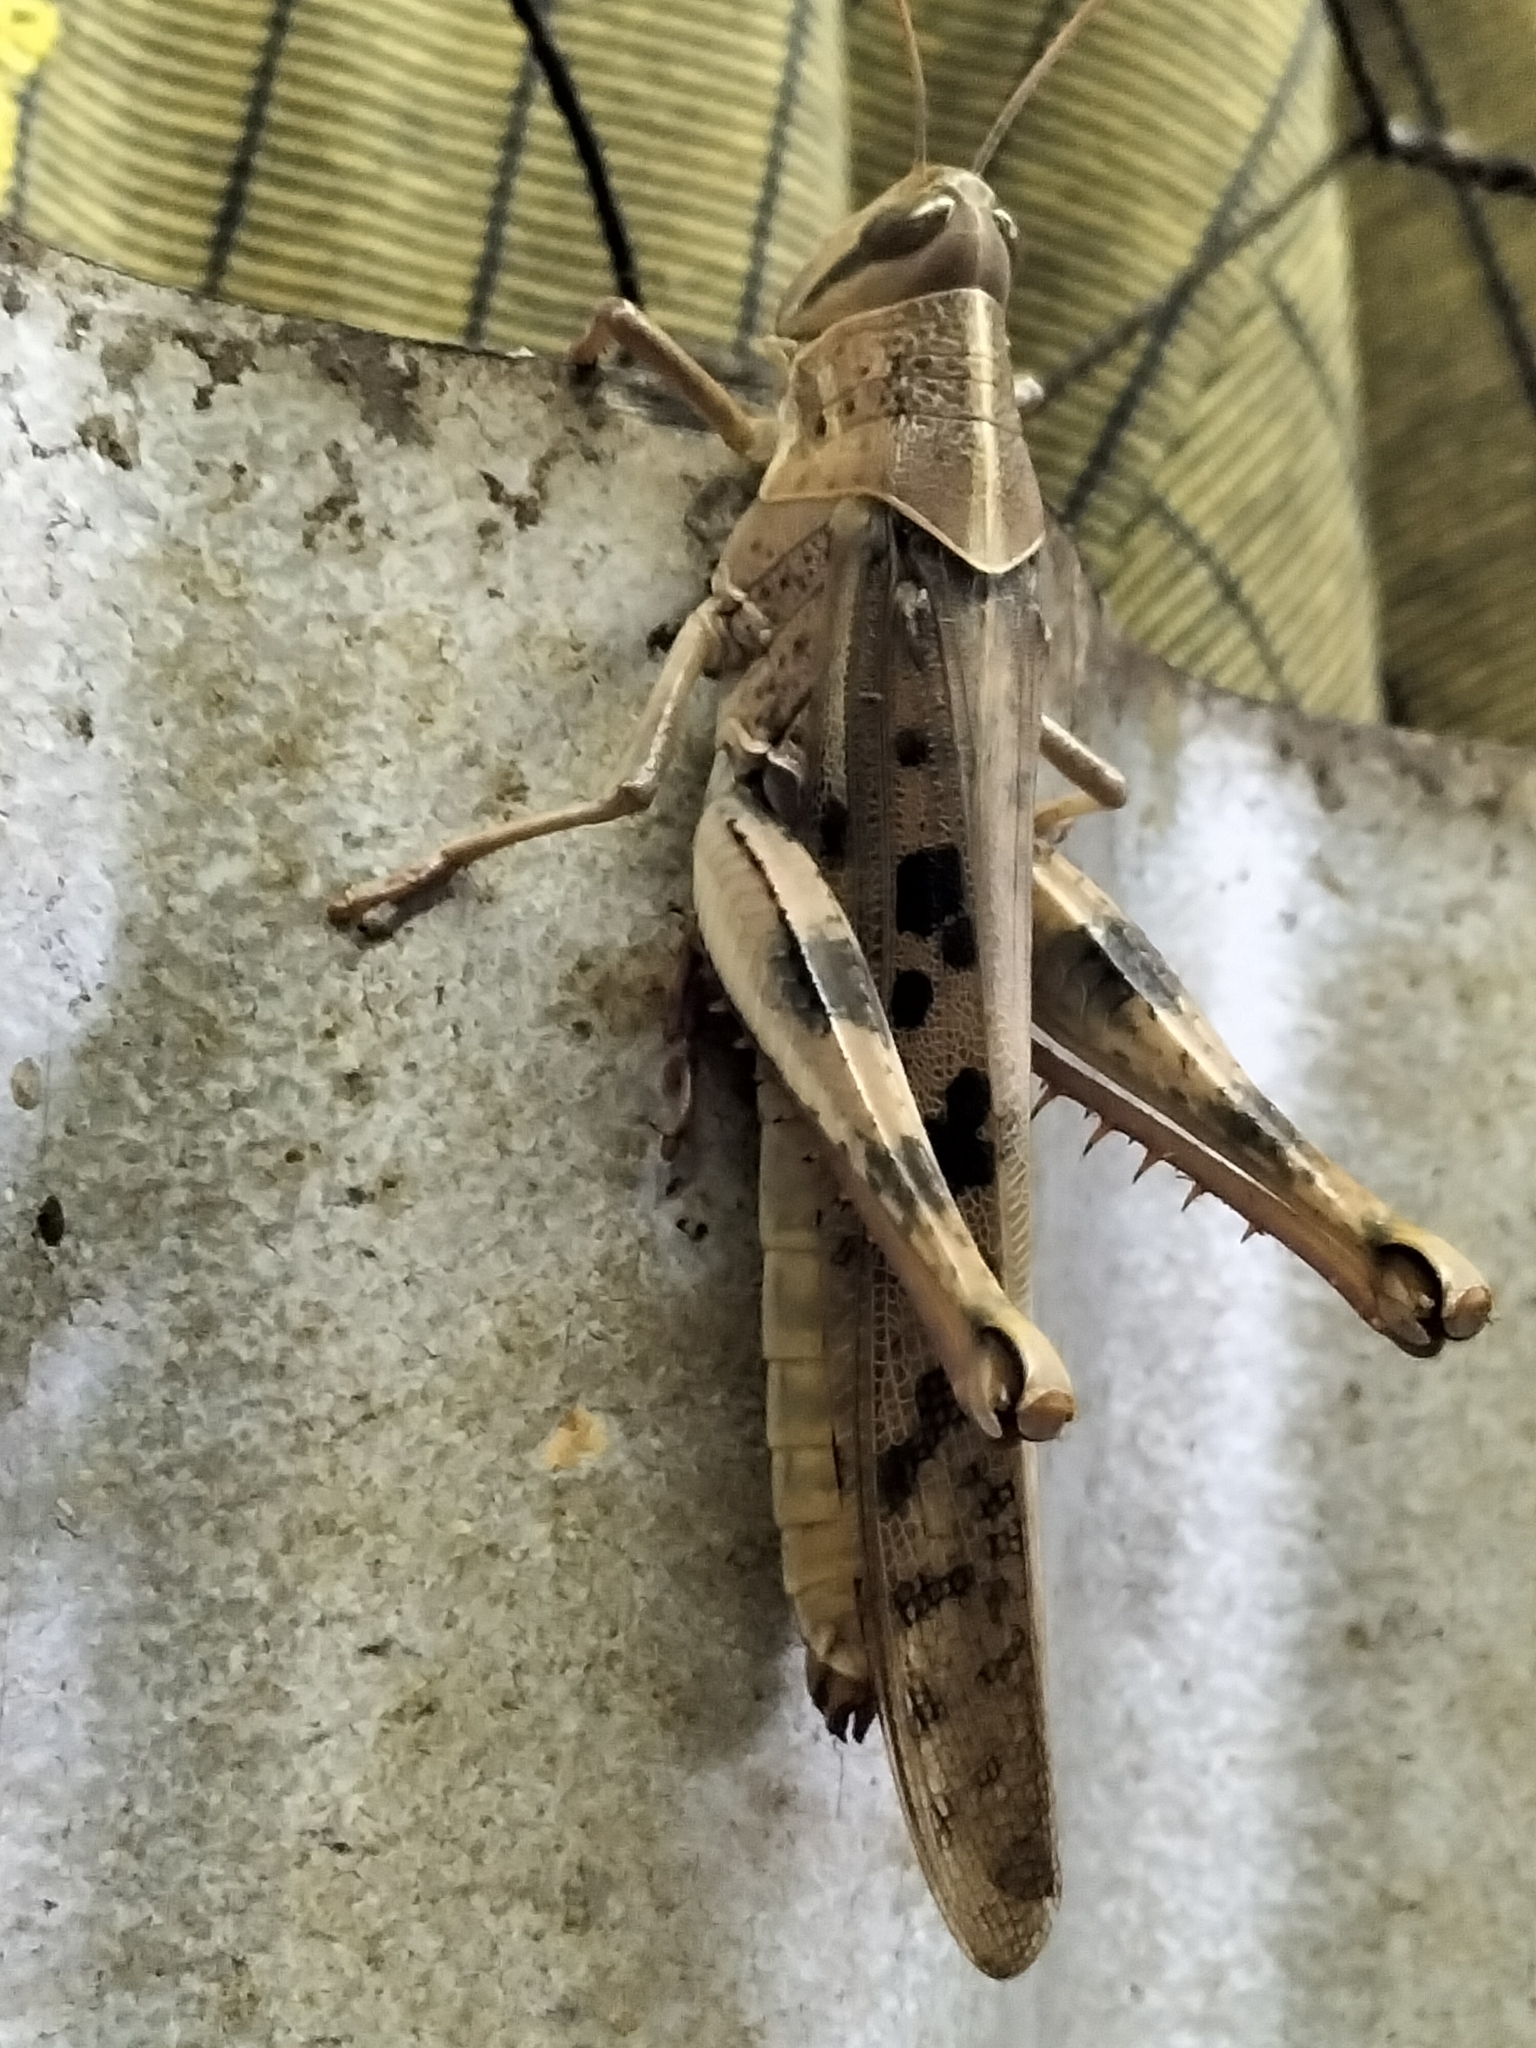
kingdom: Animalia
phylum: Arthropoda
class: Insecta
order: Orthoptera
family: Acrididae
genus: Austracris
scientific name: Austracris proxima
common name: Confusing spur-throated locust
